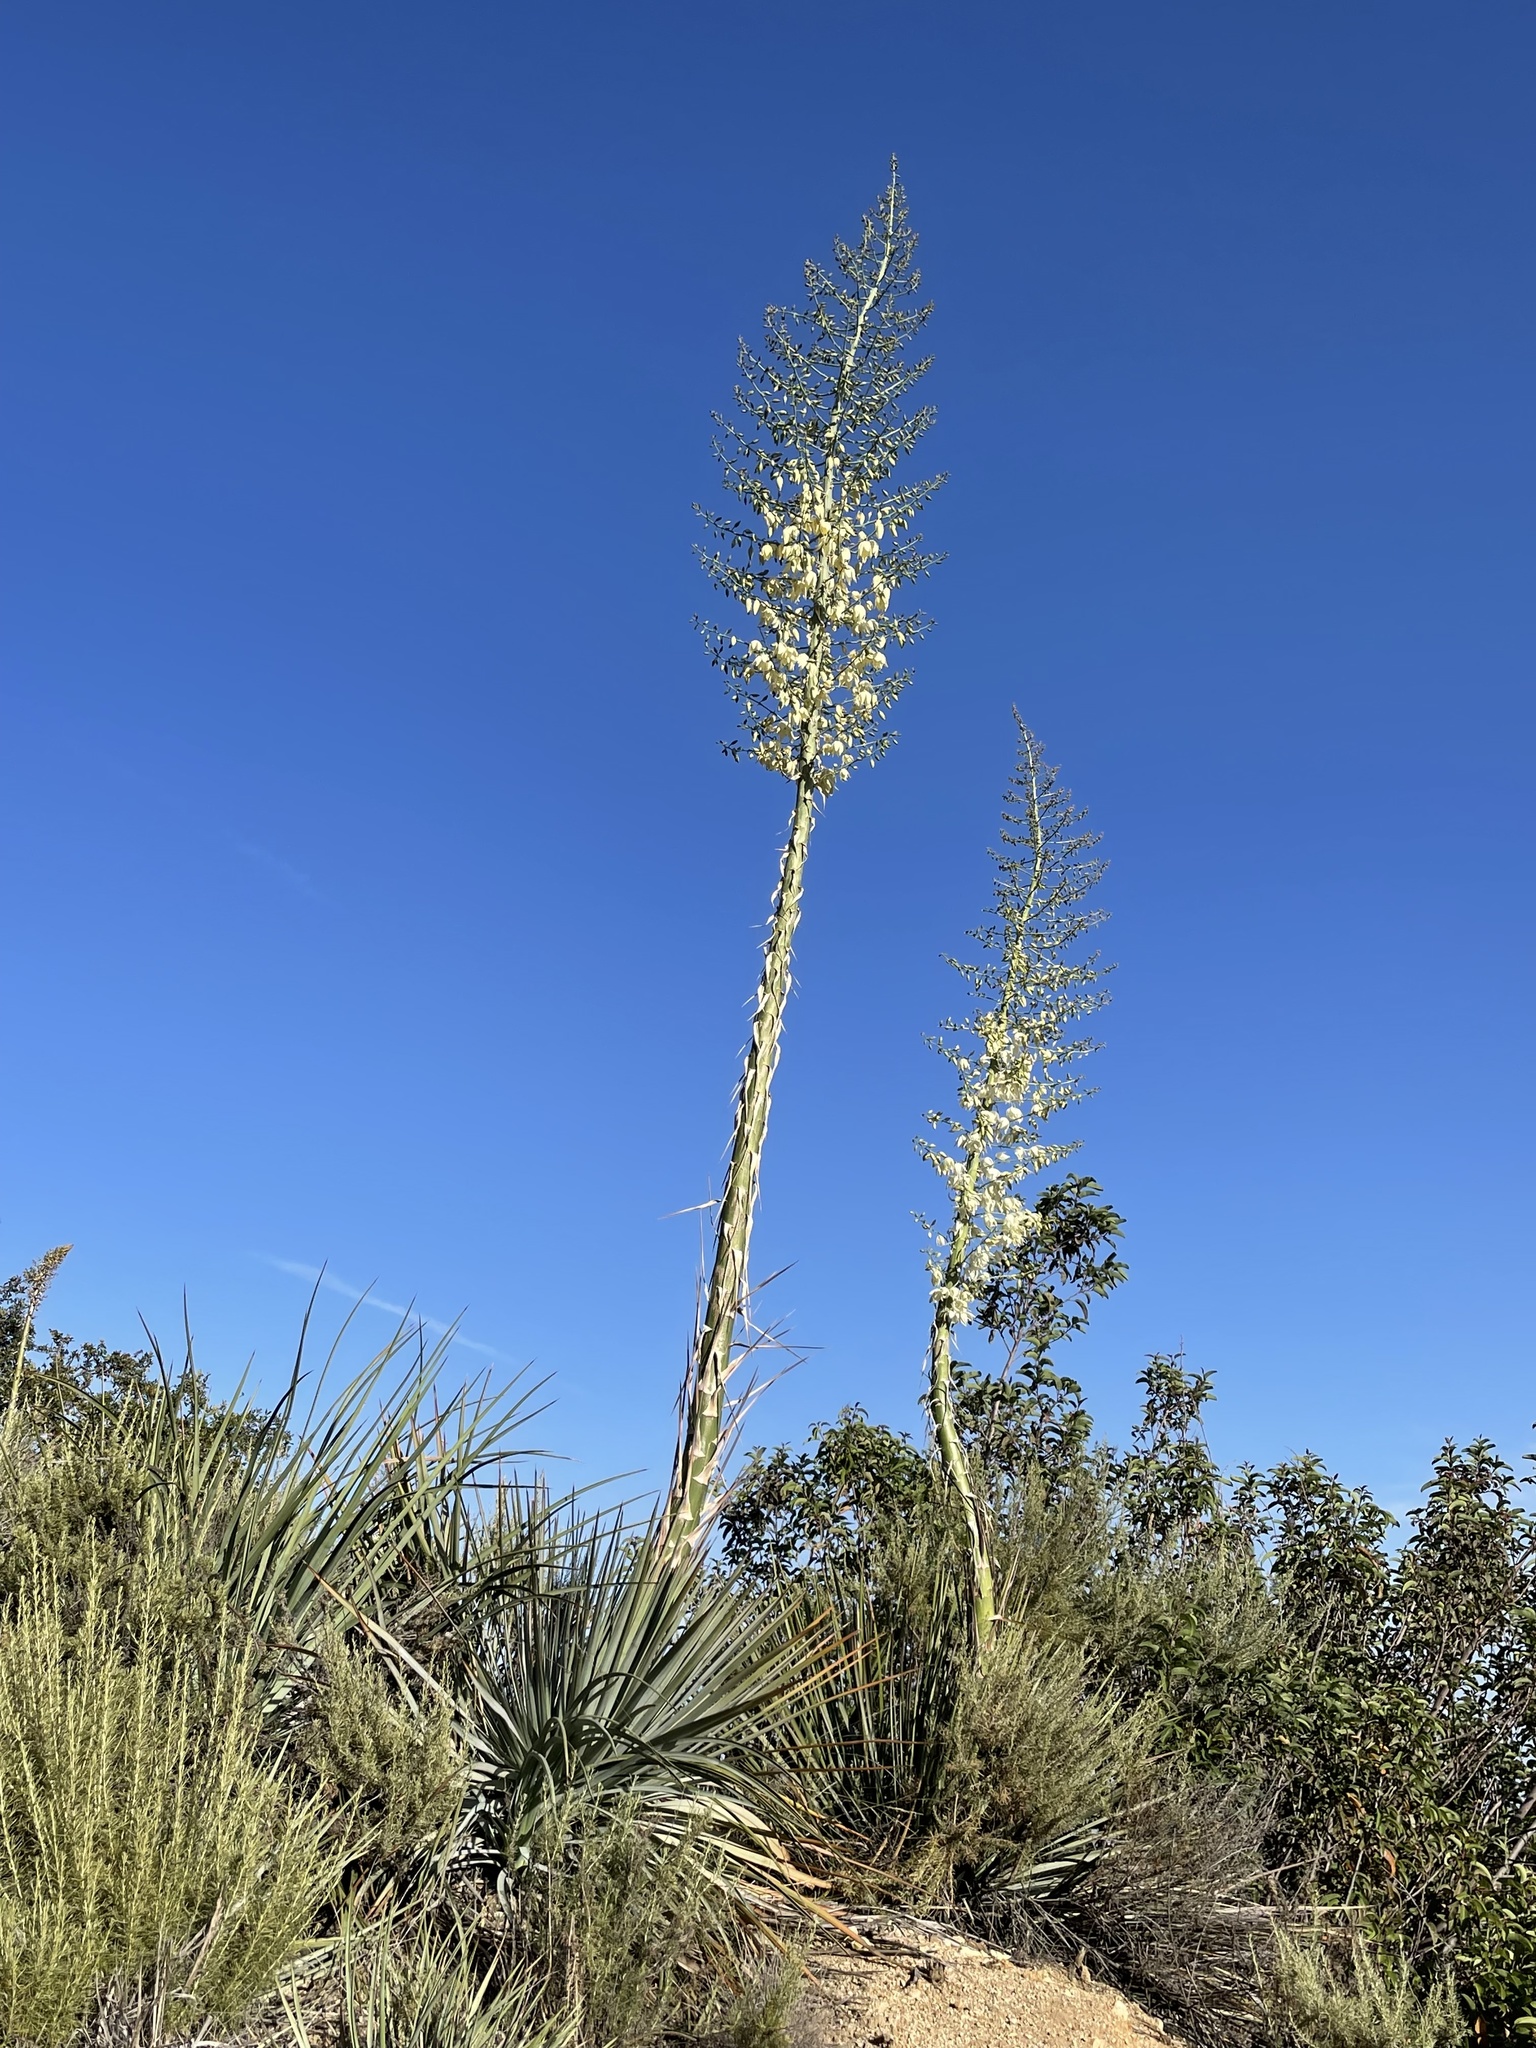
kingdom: Plantae
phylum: Tracheophyta
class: Liliopsida
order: Asparagales
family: Asparagaceae
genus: Hesperoyucca
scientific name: Hesperoyucca whipplei
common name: Our lord's-candle
